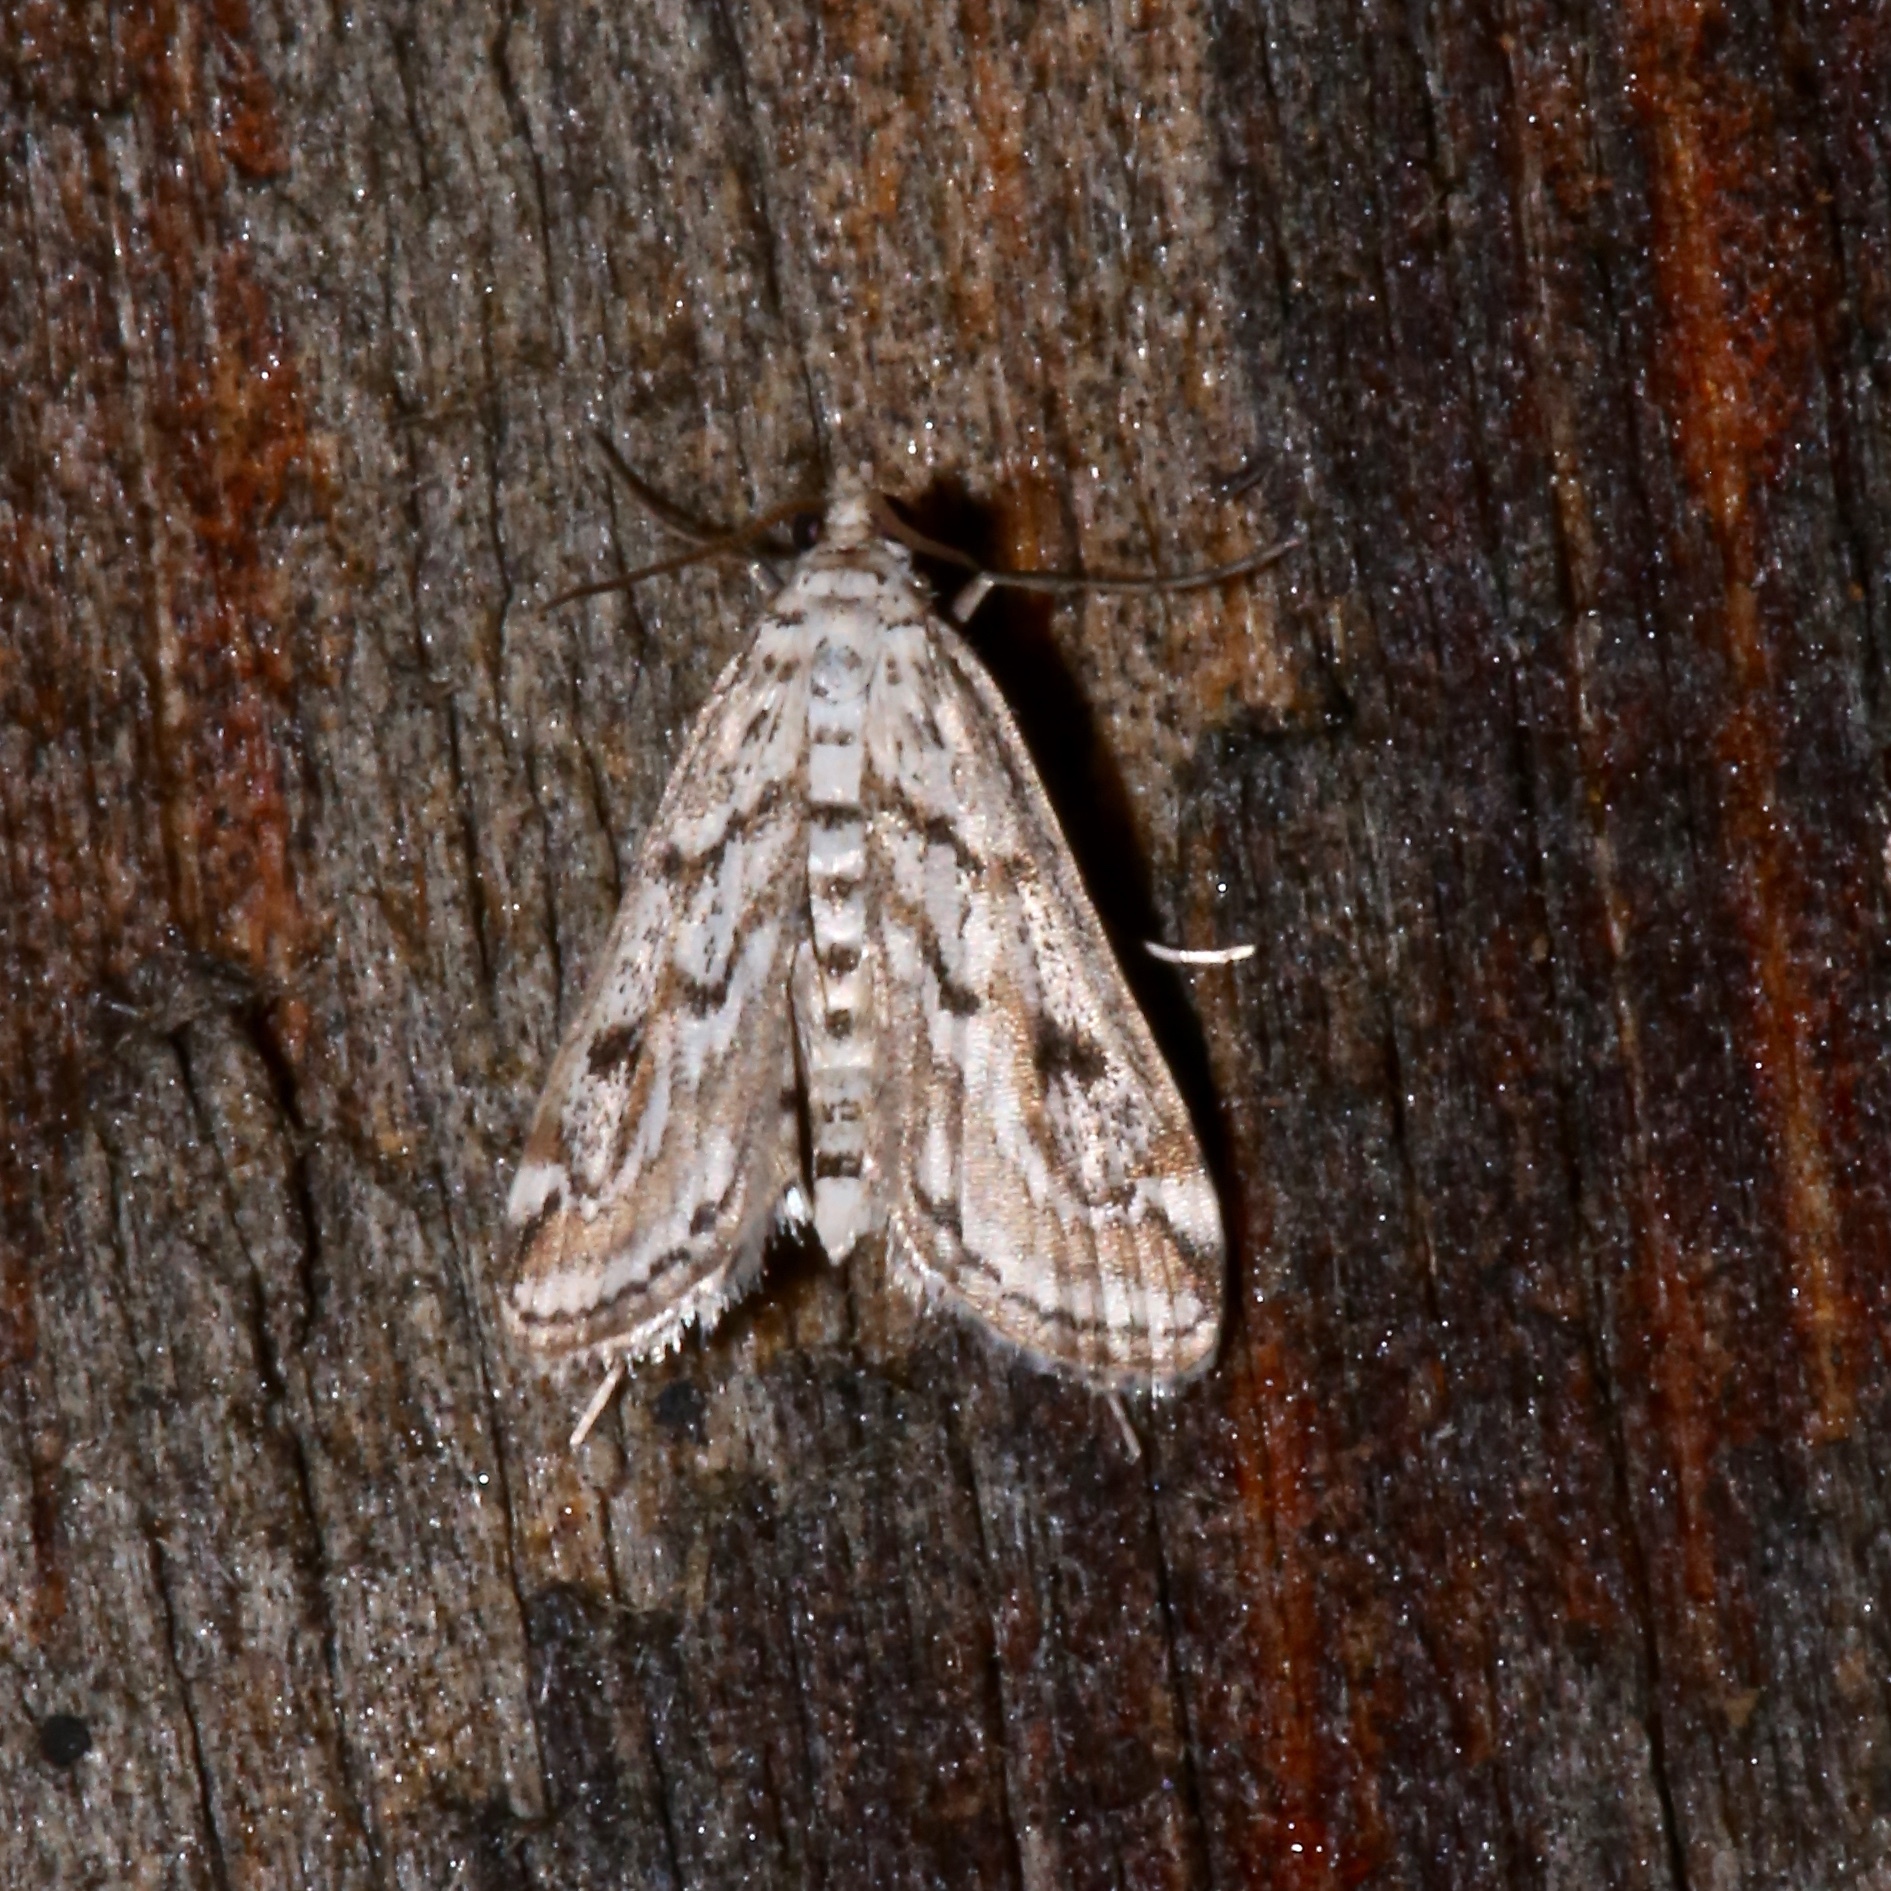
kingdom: Animalia
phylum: Arthropoda
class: Insecta
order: Lepidoptera
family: Crambidae
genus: Parapoynx
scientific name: Parapoynx allionealis
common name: Bladderwort casemaker
